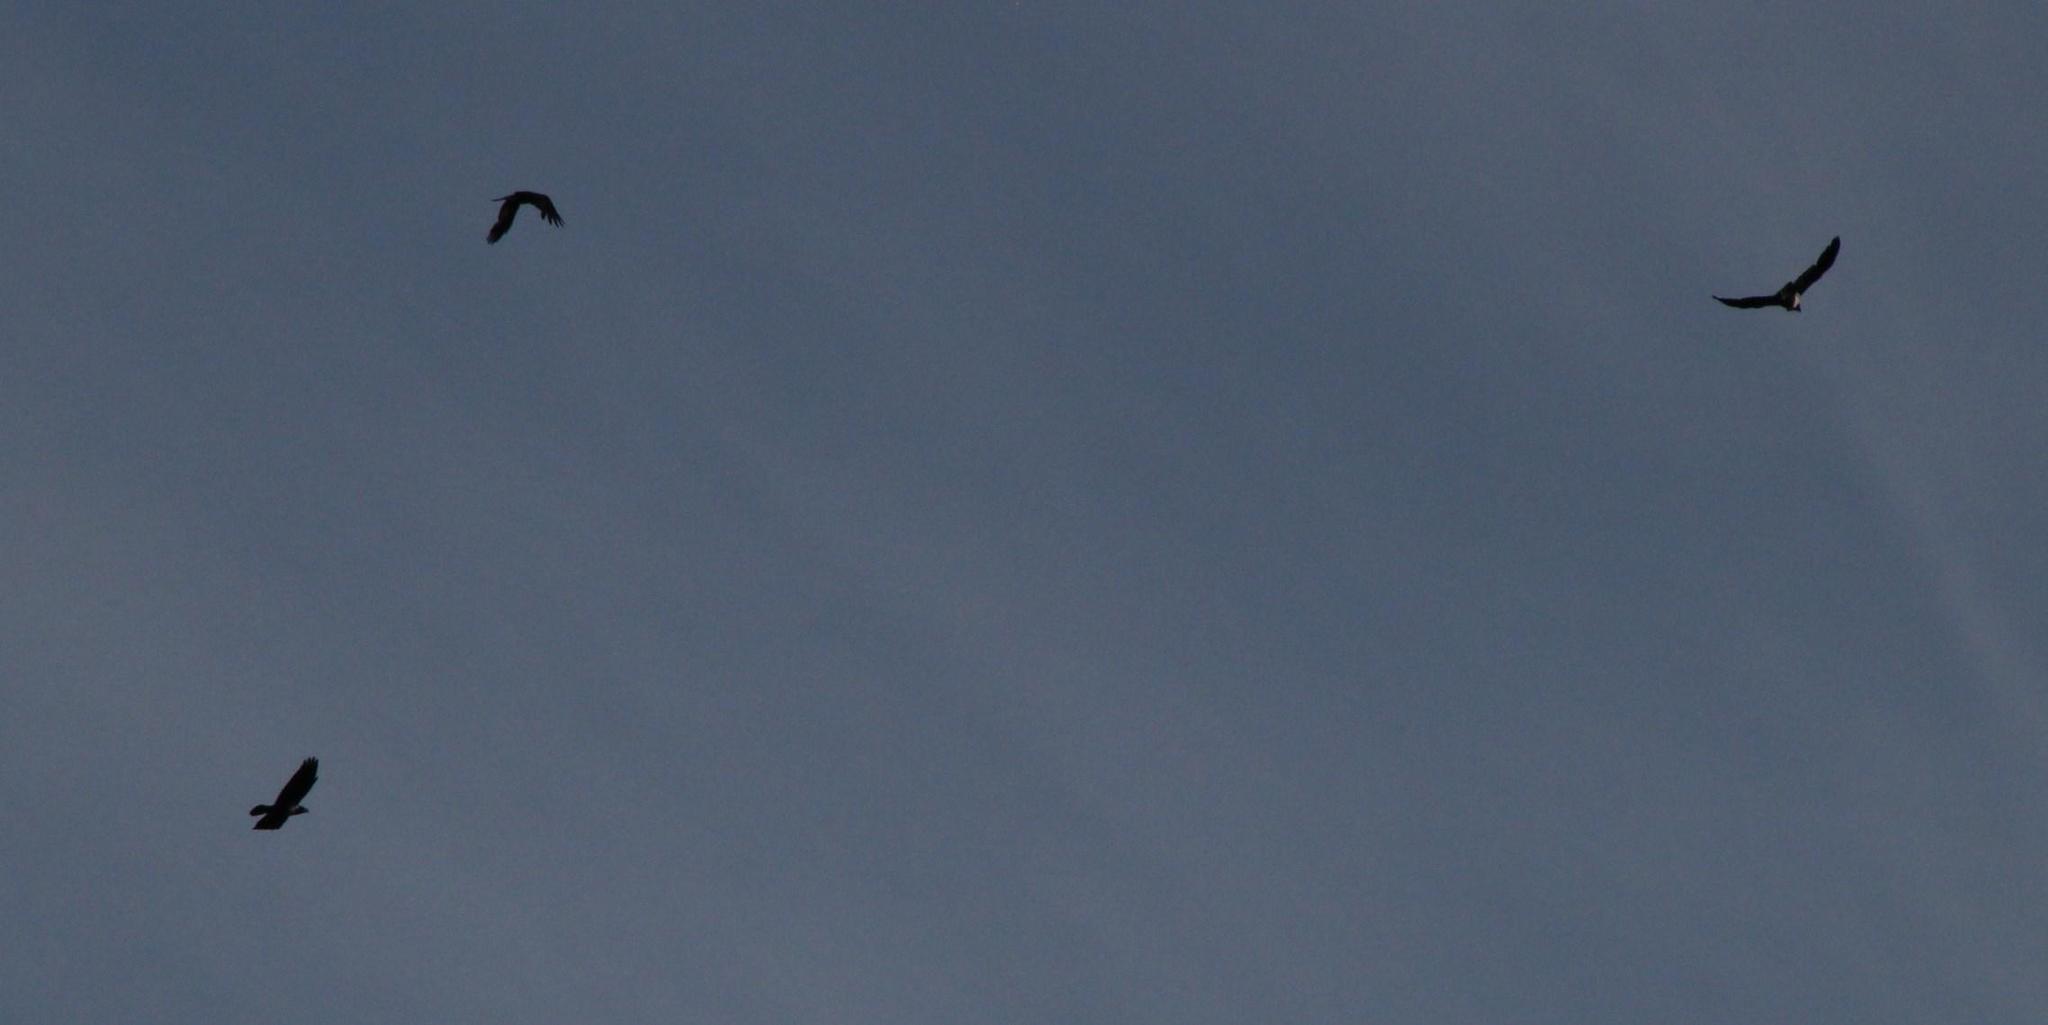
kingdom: Animalia
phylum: Chordata
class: Aves
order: Passeriformes
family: Corvidae
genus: Corvus
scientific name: Corvus albus
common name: Pied crow
